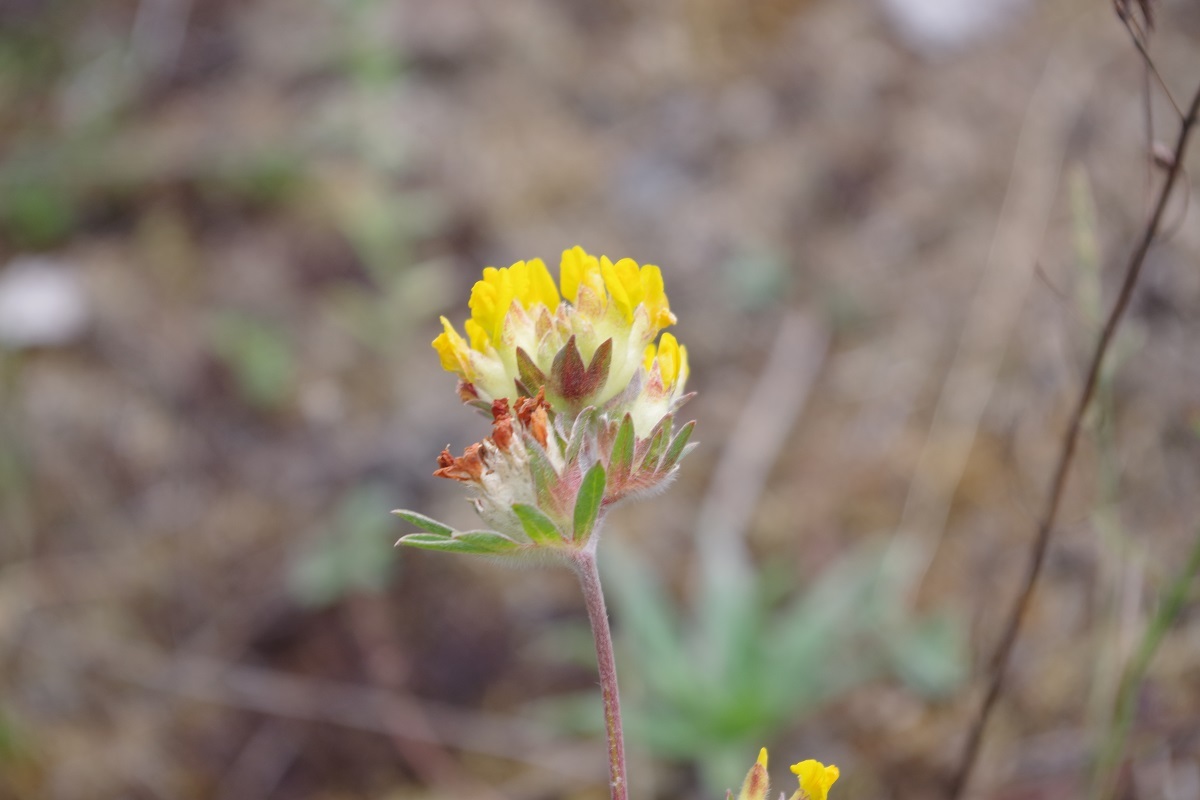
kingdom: Plantae
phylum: Tracheophyta
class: Magnoliopsida
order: Fabales
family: Fabaceae
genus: Anthyllis
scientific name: Anthyllis vulneraria
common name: Kidney vetch
